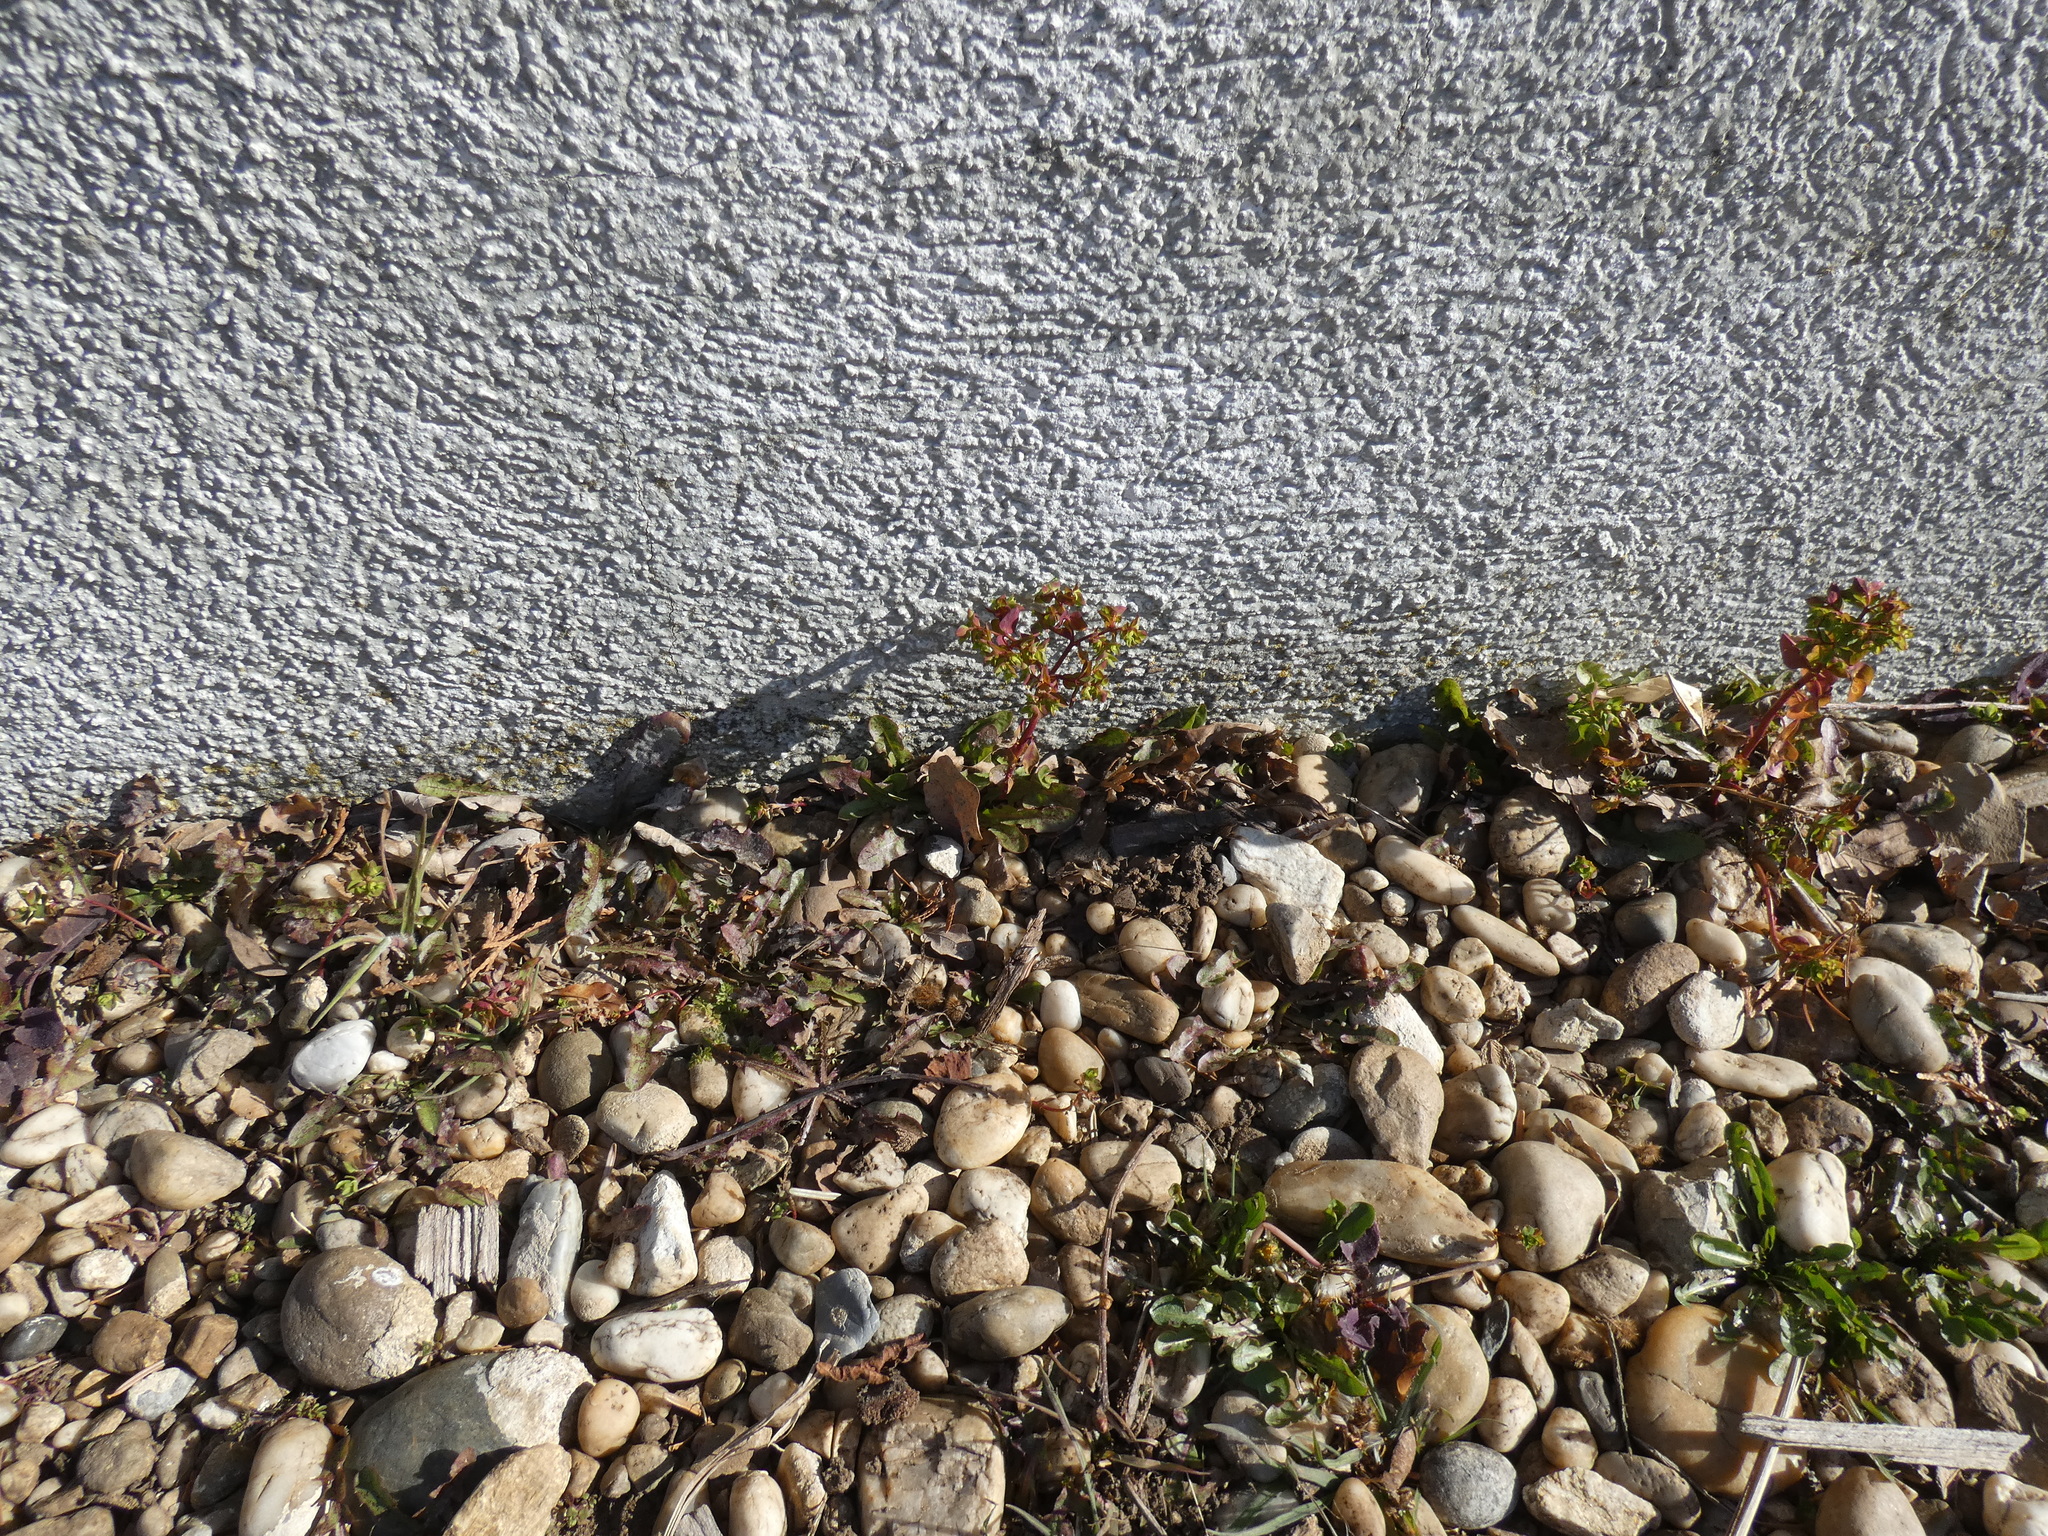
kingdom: Plantae
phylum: Tracheophyta
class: Magnoliopsida
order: Malpighiales
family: Euphorbiaceae
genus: Euphorbia
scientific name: Euphorbia peplus
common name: Petty spurge
